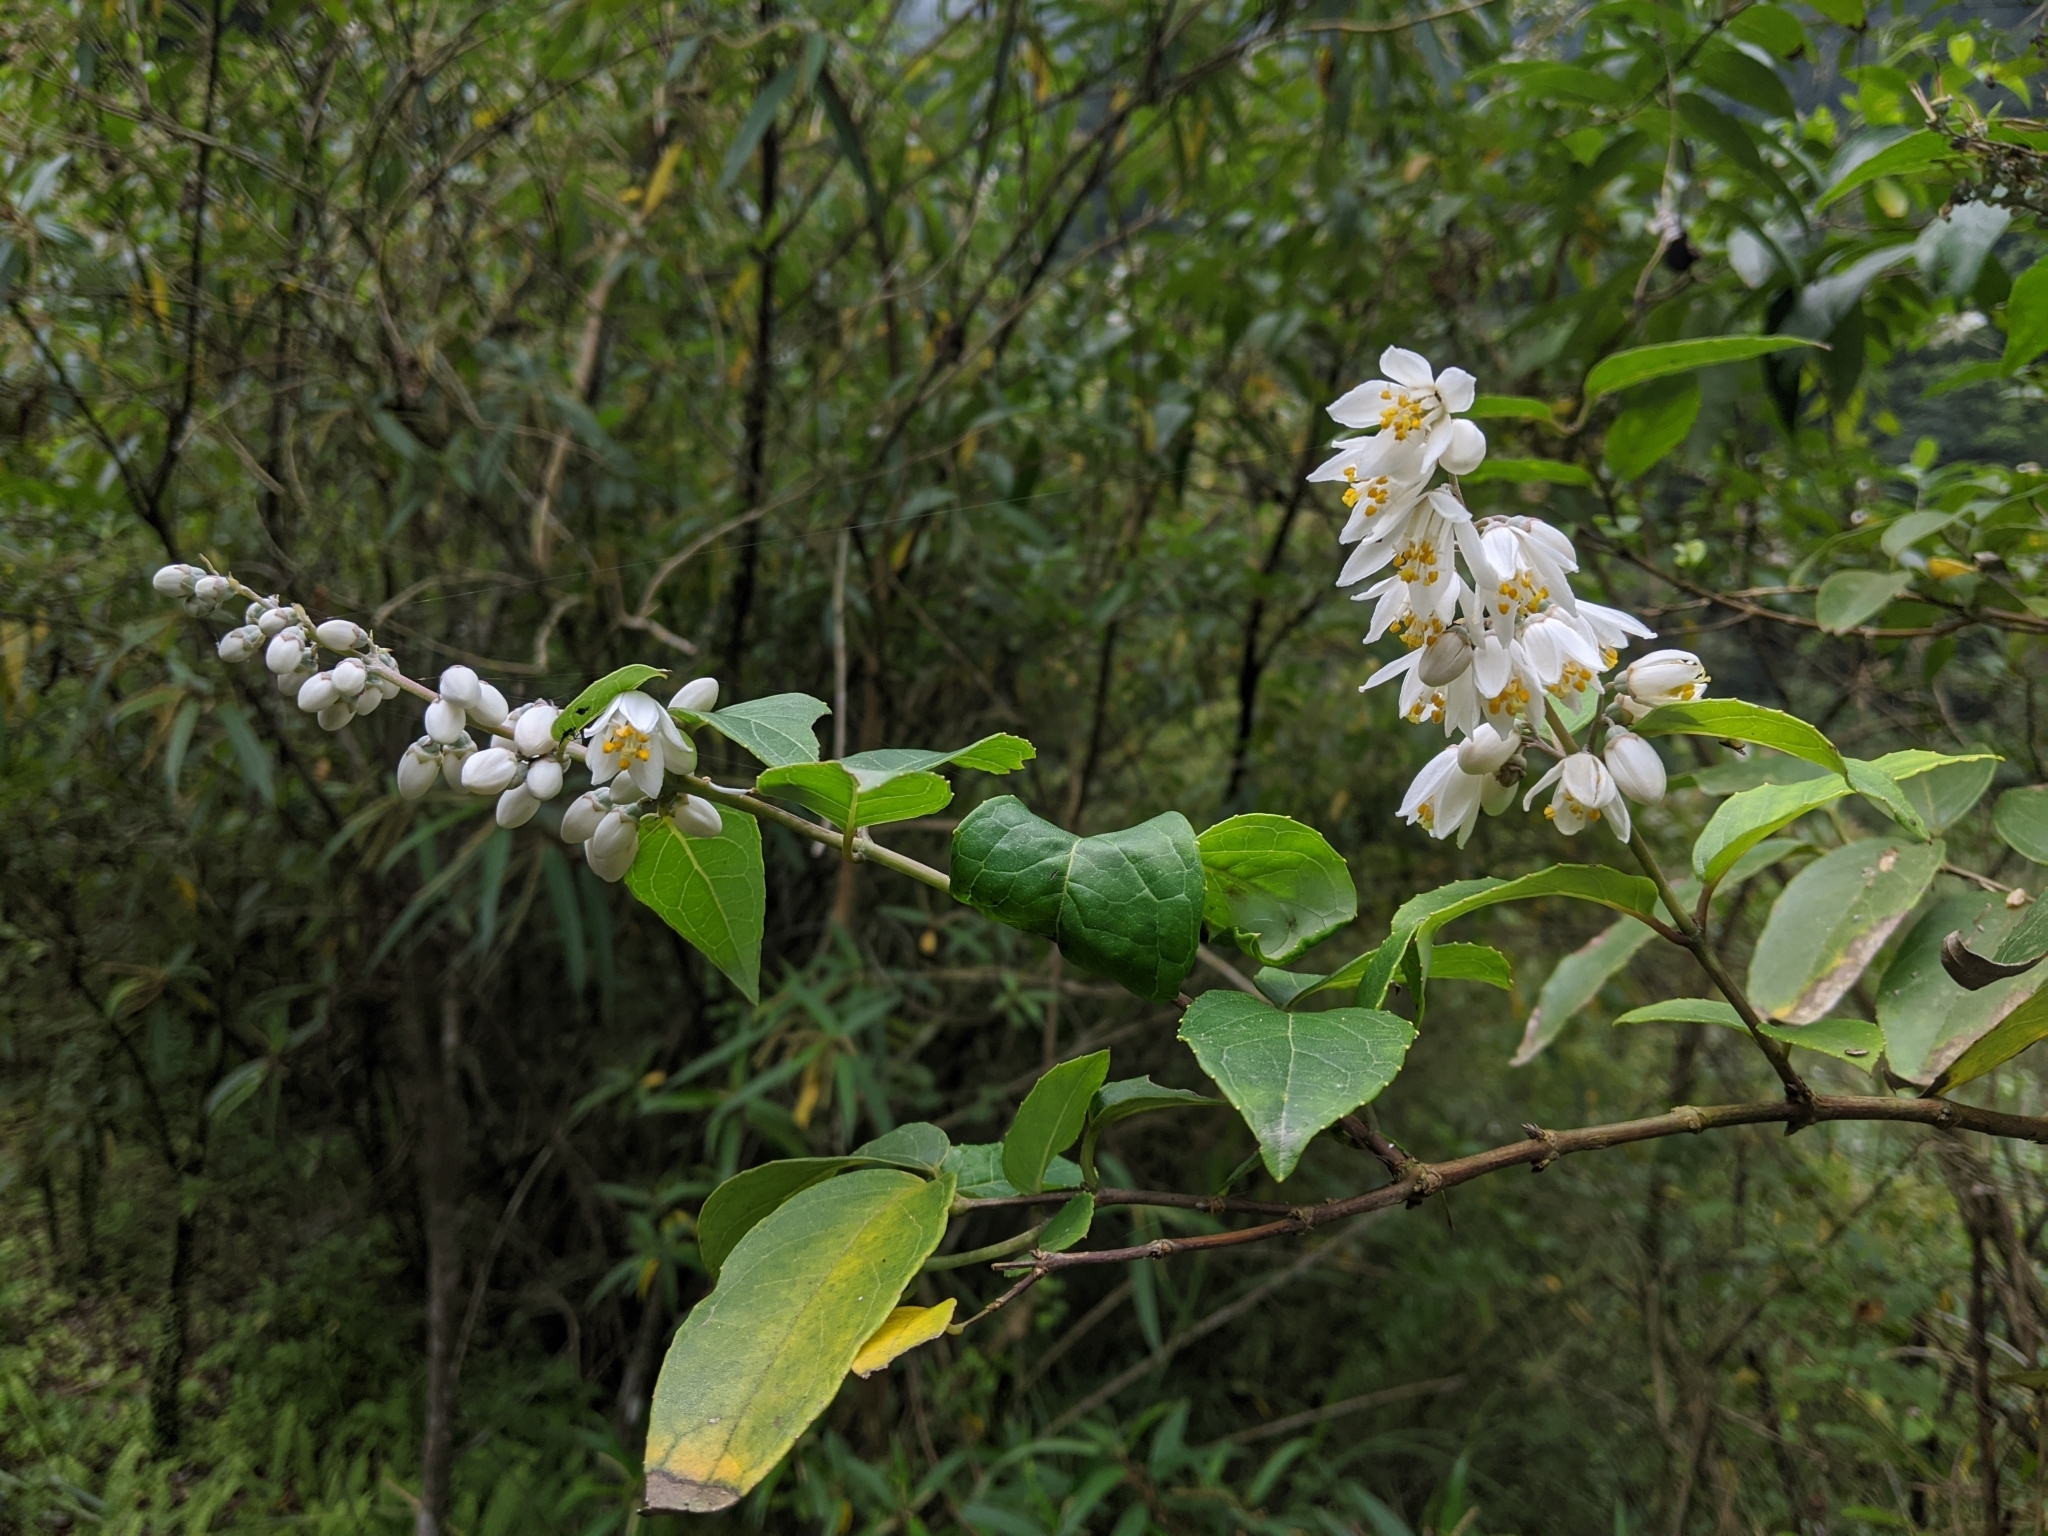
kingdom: Plantae
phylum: Tracheophyta
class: Magnoliopsida
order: Cornales
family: Hydrangeaceae
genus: Deutzia
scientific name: Deutzia pulchra
